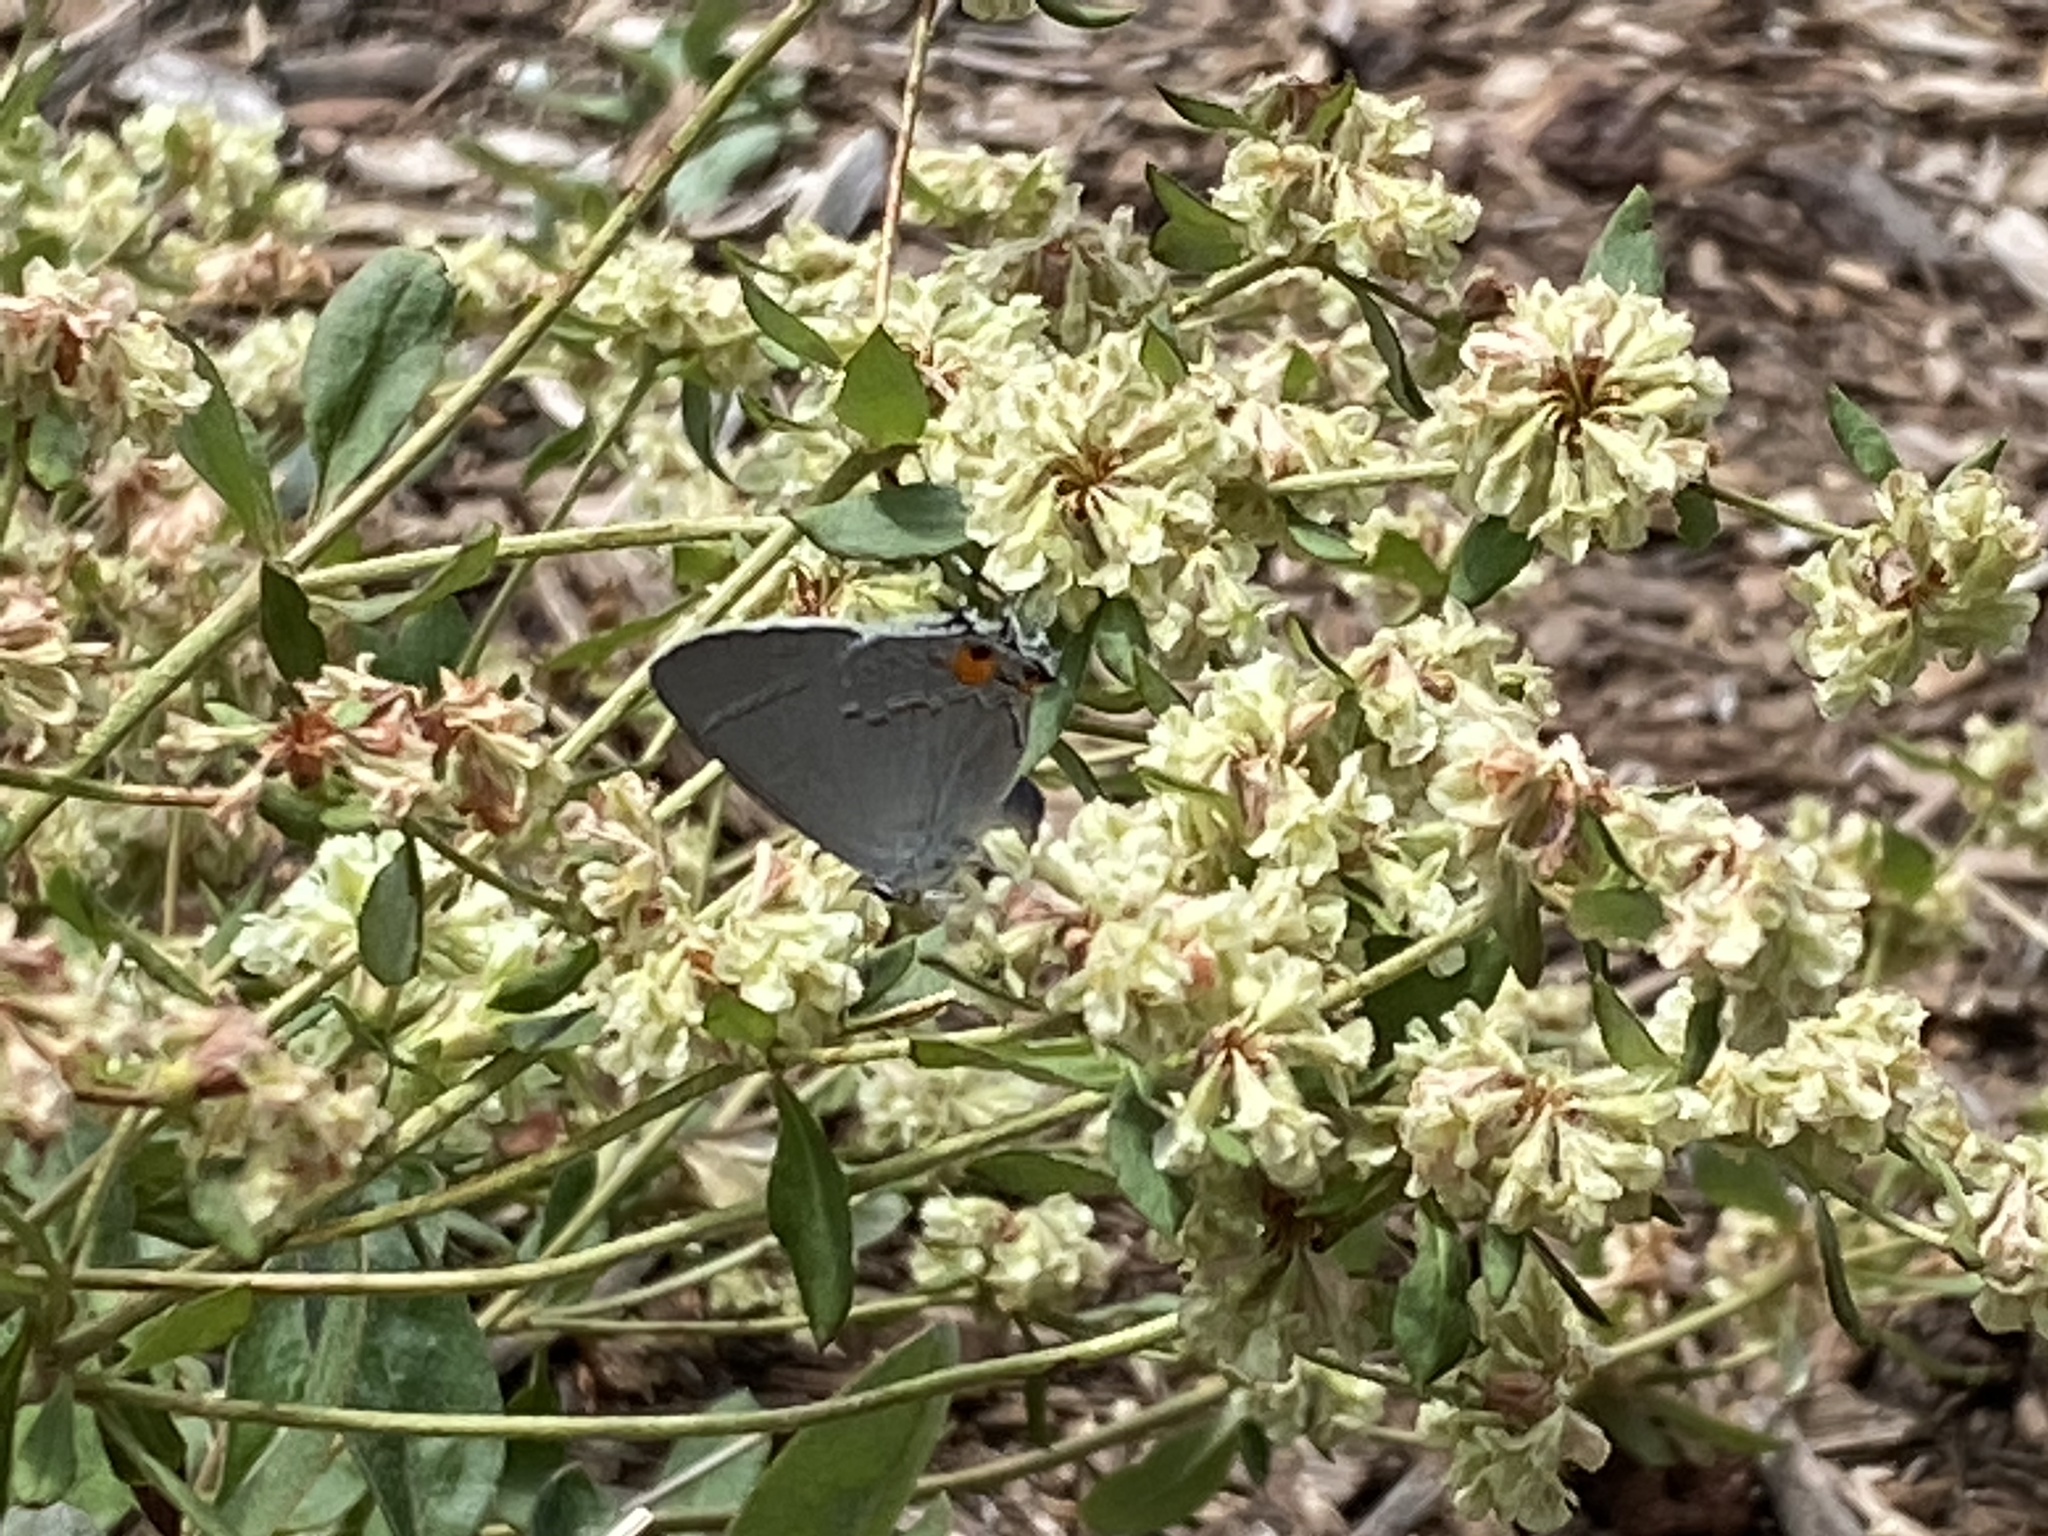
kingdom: Animalia
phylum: Arthropoda
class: Insecta
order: Lepidoptera
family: Lycaenidae
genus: Strymon
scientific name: Strymon melinus
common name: Gray hairstreak
